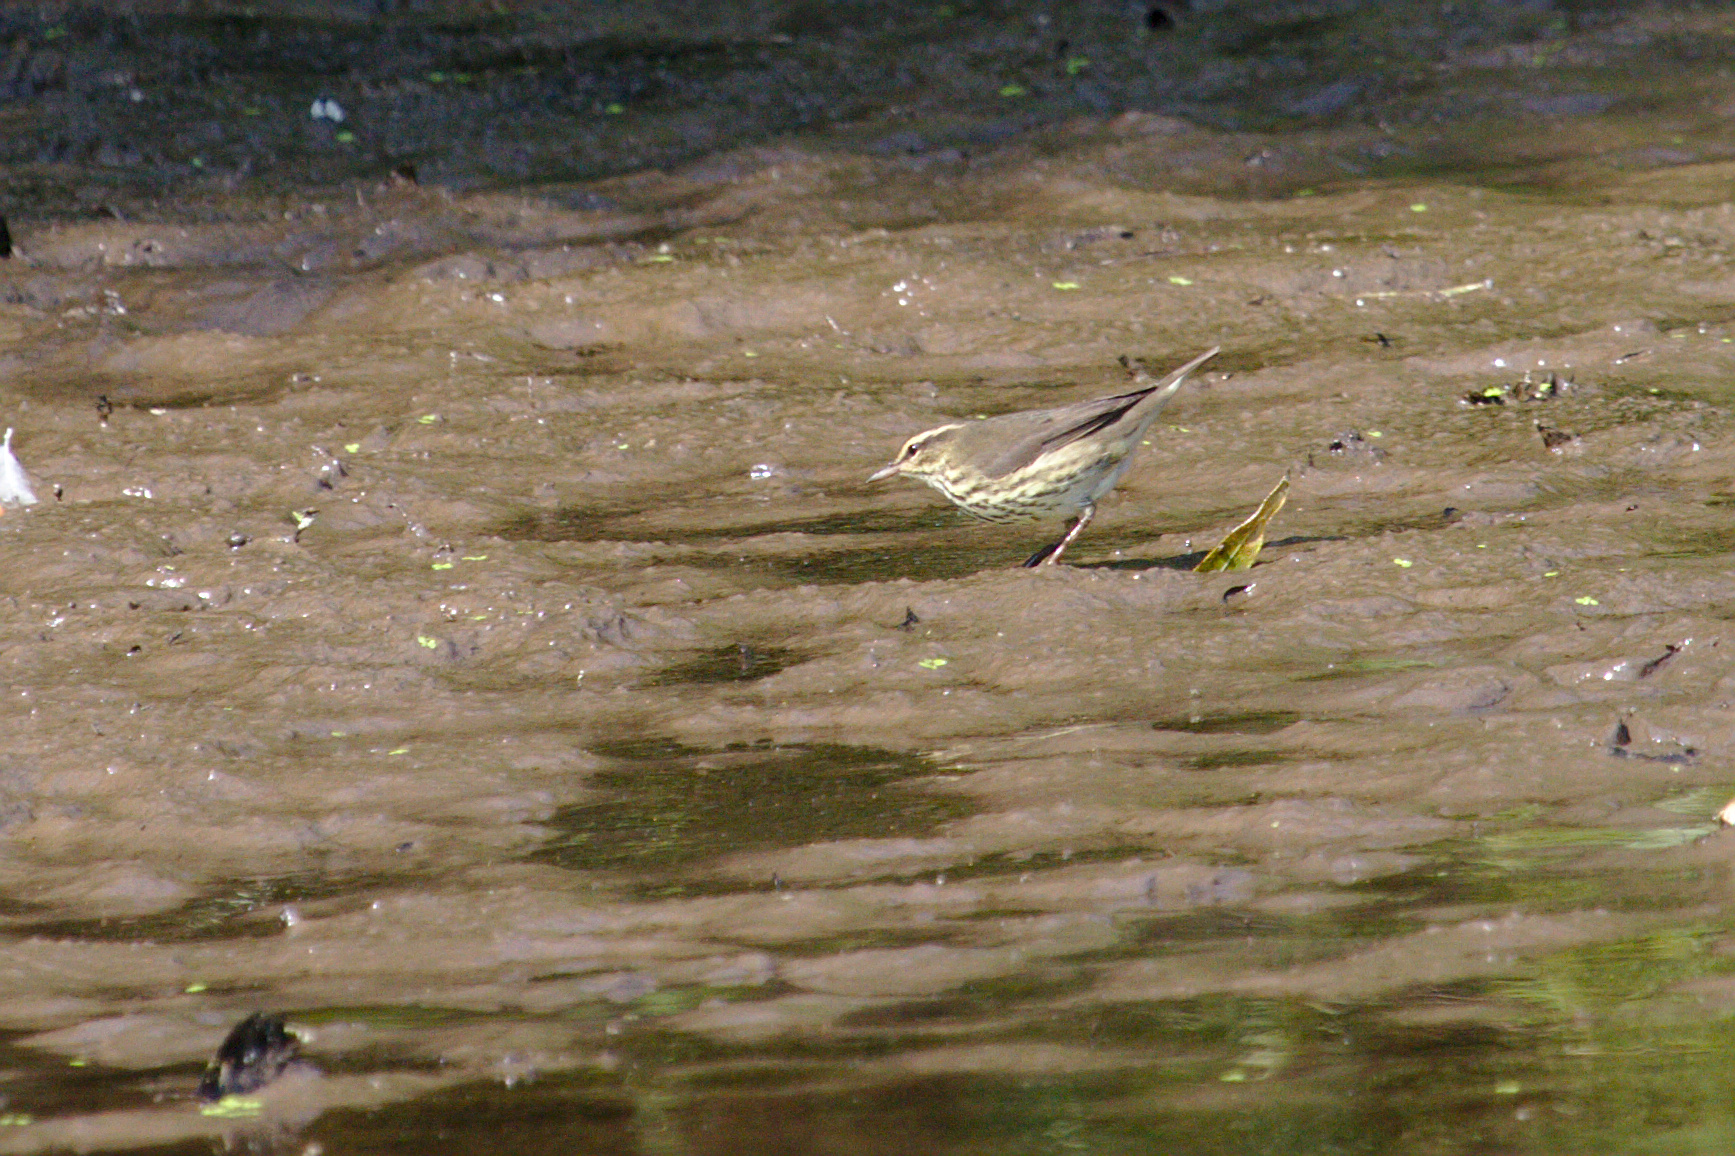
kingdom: Animalia
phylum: Chordata
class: Aves
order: Passeriformes
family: Parulidae
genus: Parkesia
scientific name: Parkesia noveboracensis
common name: Northern waterthrush
